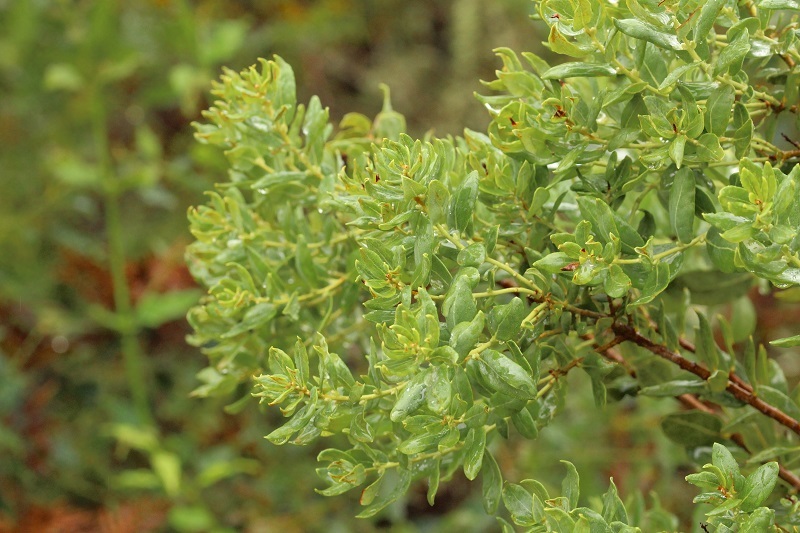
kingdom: Plantae
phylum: Tracheophyta
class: Magnoliopsida
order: Fagales
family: Myricaceae
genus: Morella
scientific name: Morella humilis
